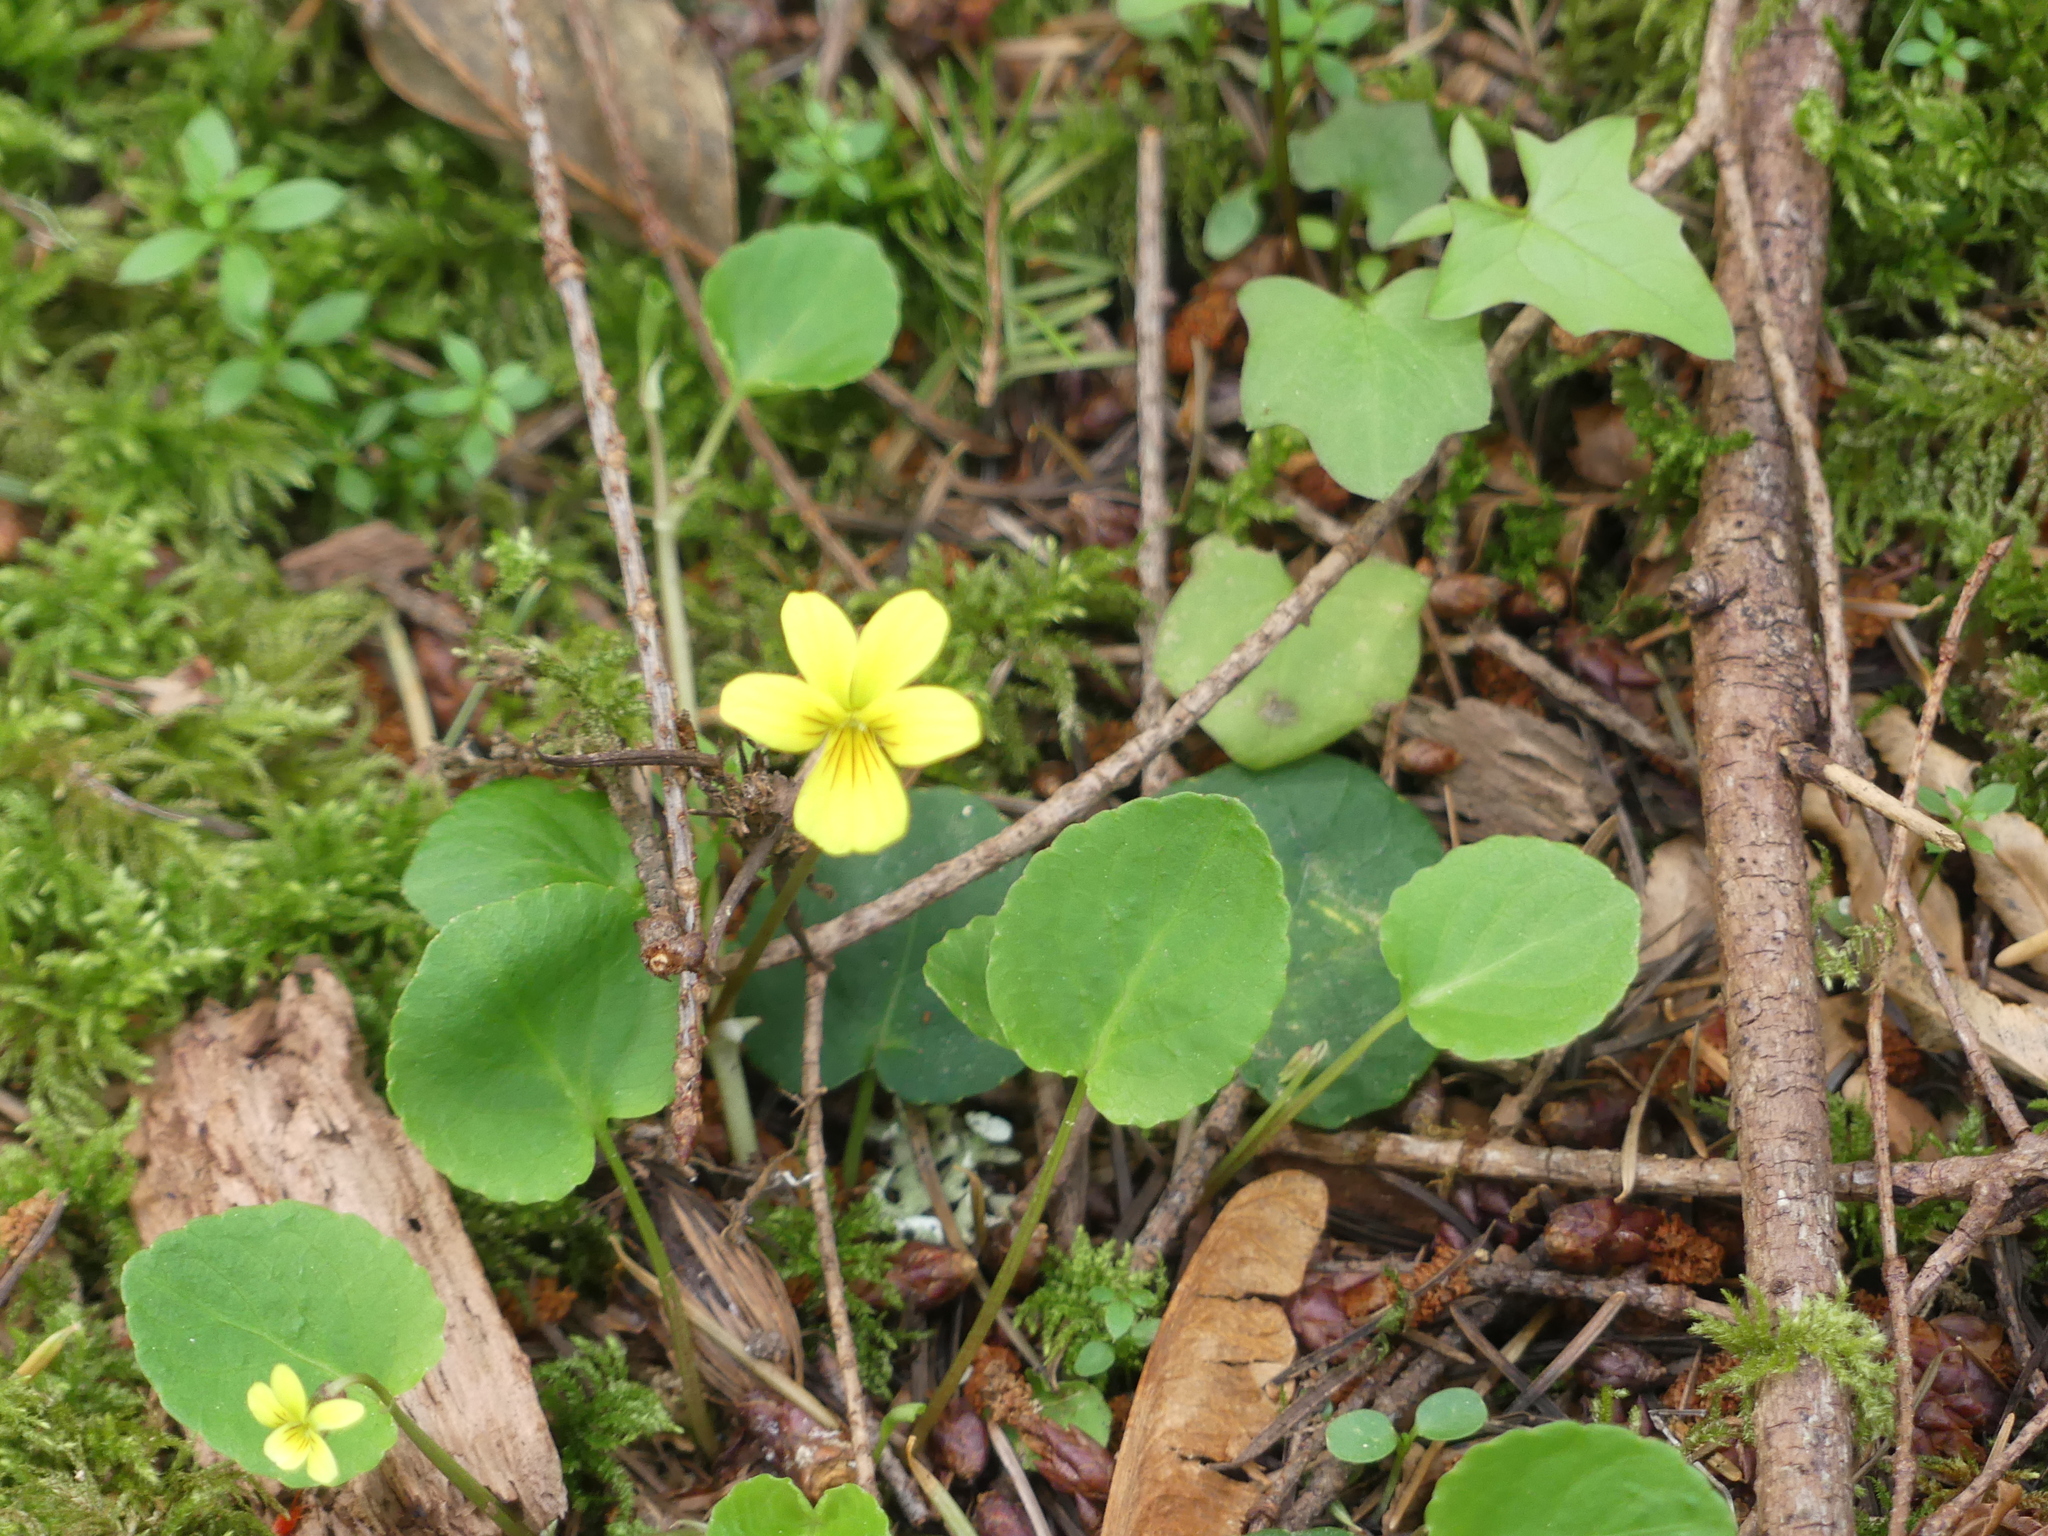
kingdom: Plantae
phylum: Tracheophyta
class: Magnoliopsida
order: Malpighiales
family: Violaceae
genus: Viola
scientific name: Viola sempervirens
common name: Evergreen violet
